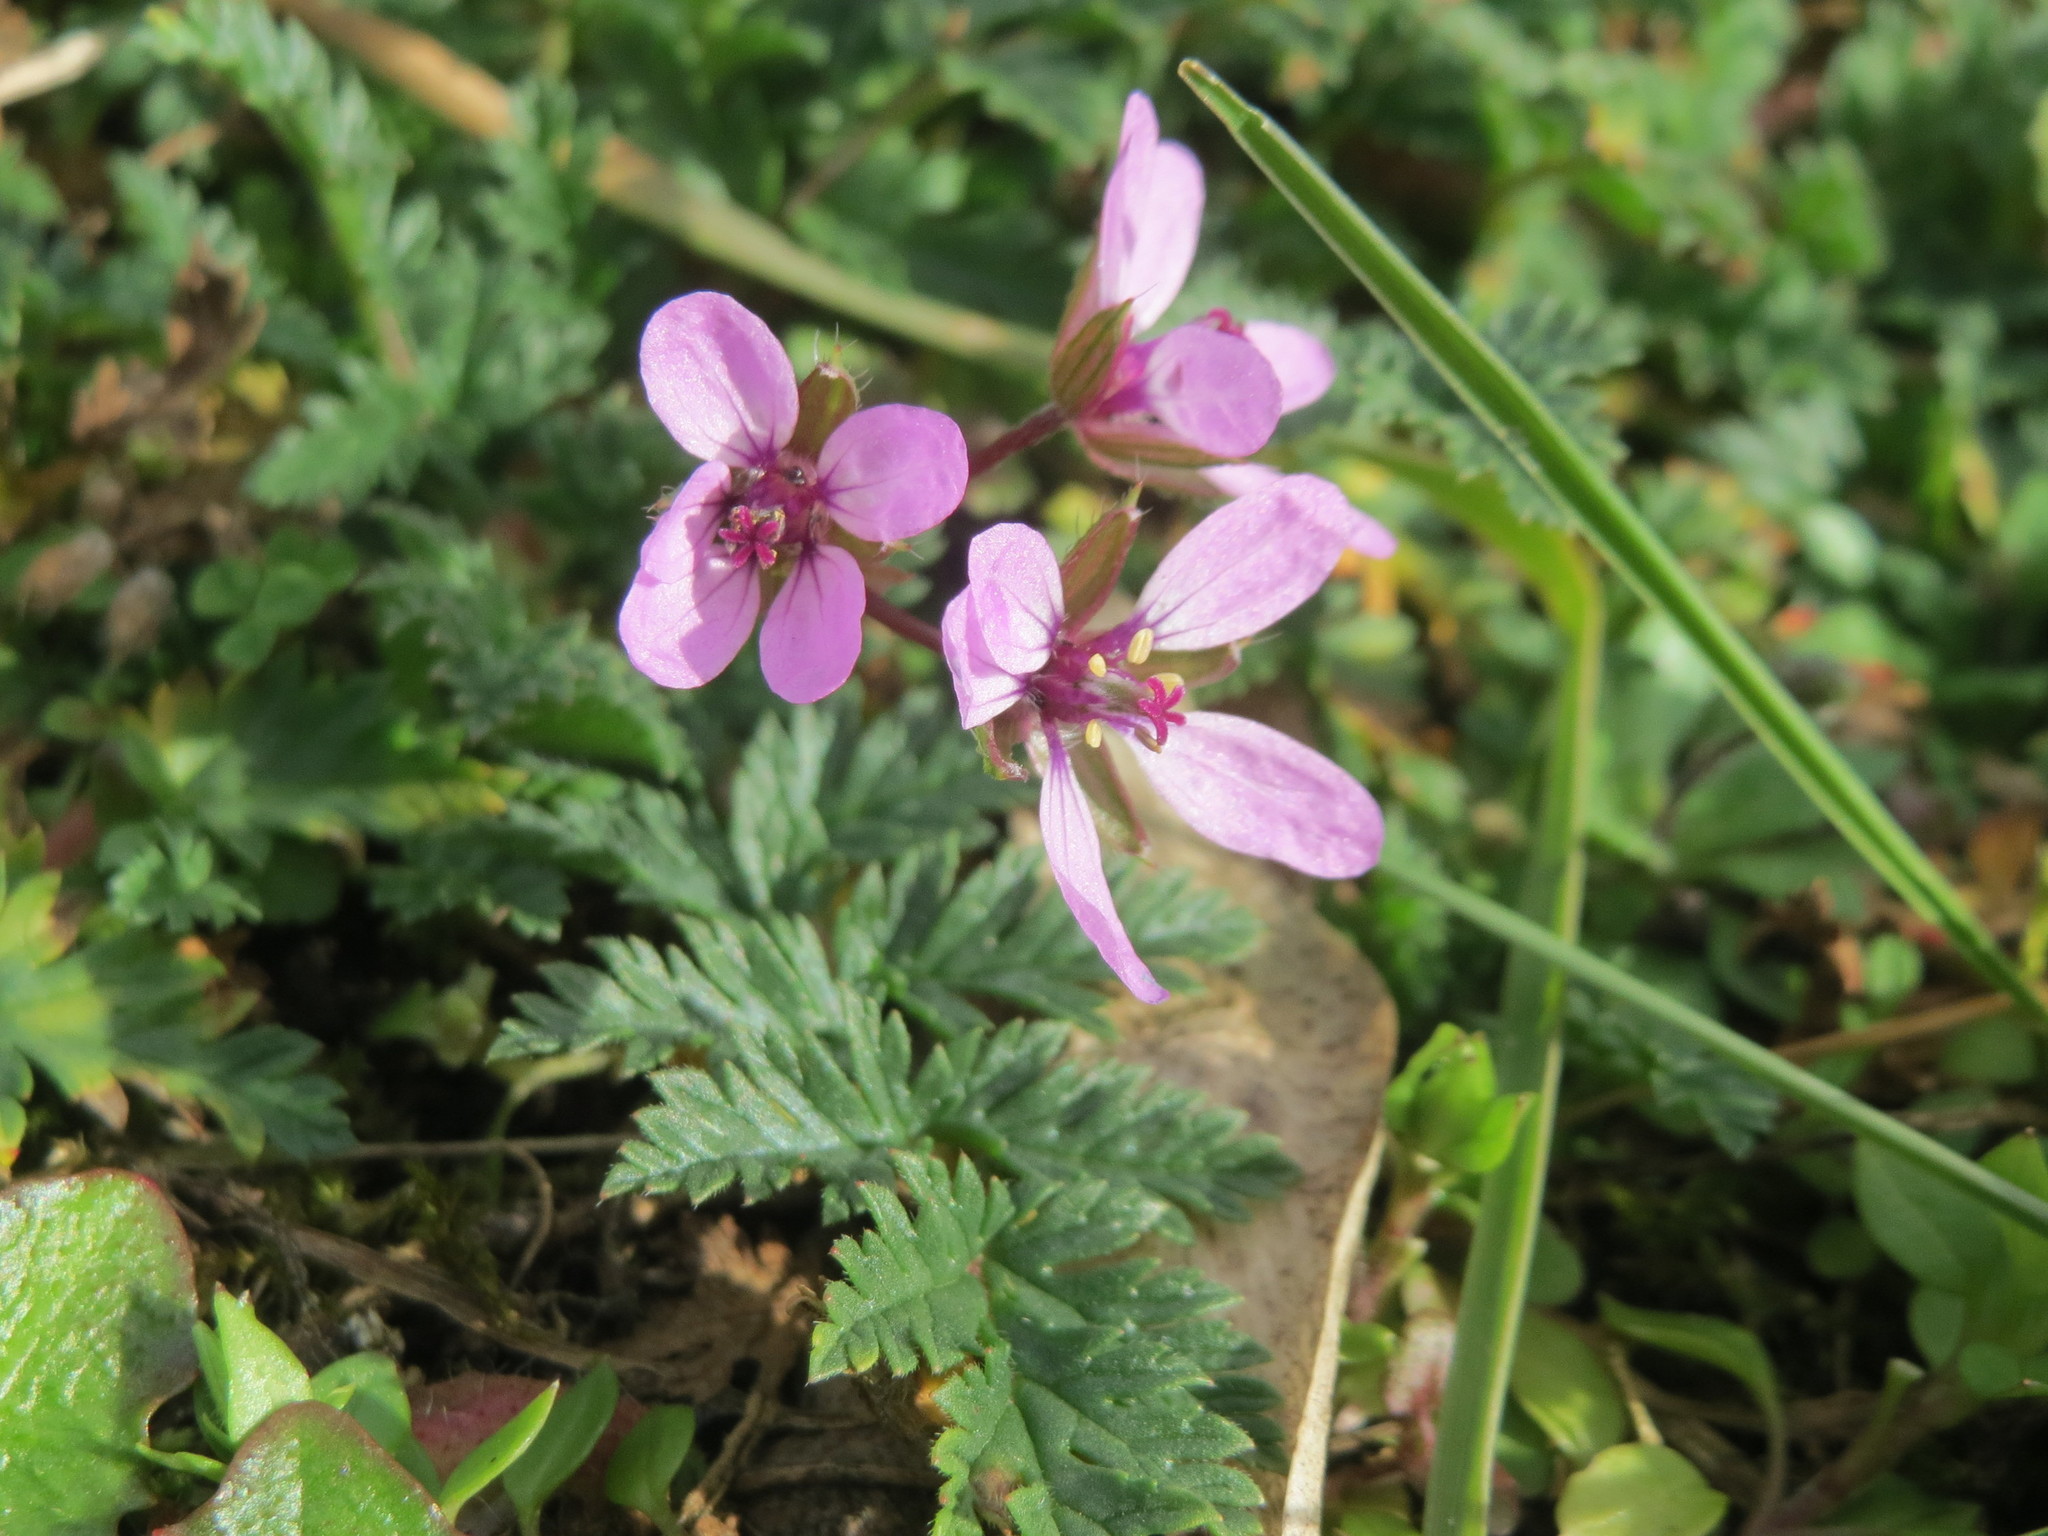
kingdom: Plantae
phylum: Tracheophyta
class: Magnoliopsida
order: Geraniales
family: Geraniaceae
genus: Erodium
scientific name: Erodium cicutarium
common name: Common stork's-bill
